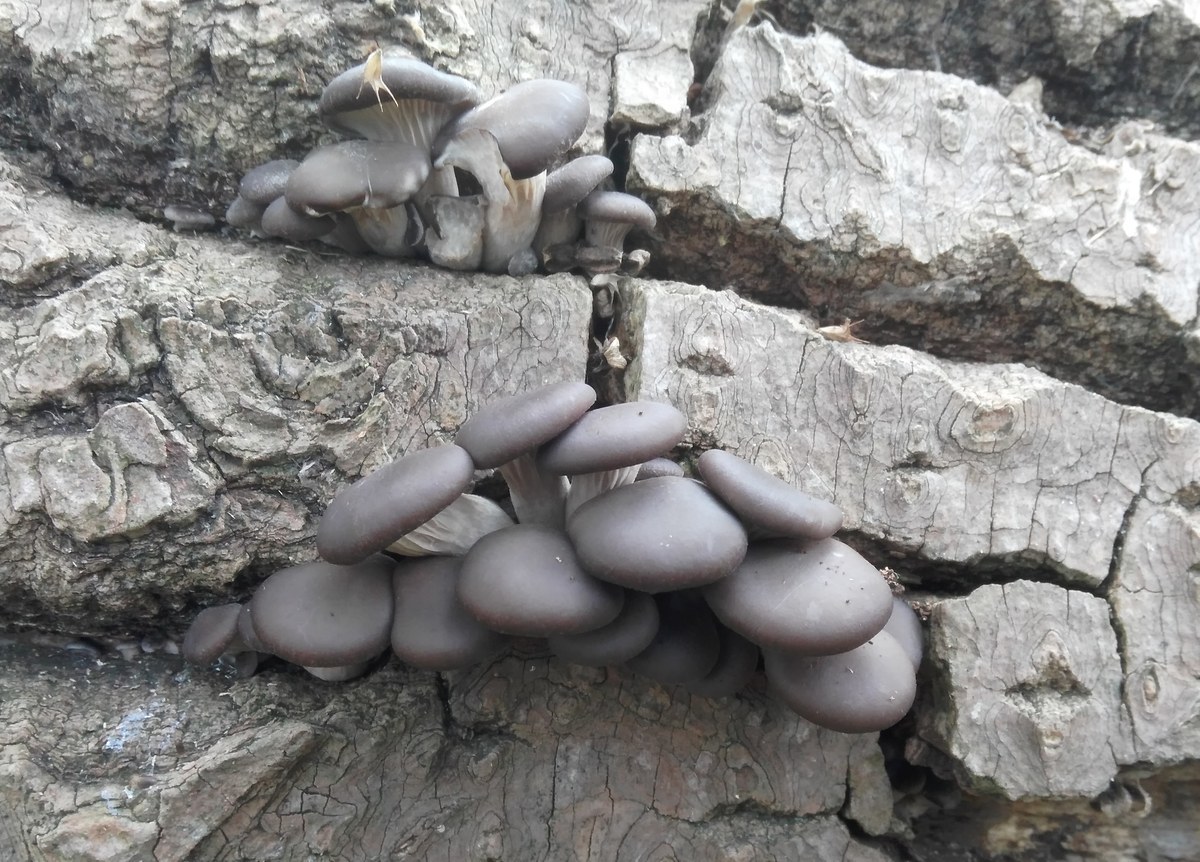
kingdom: Fungi
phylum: Basidiomycota
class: Agaricomycetes
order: Agaricales
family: Pleurotaceae
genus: Pleurotus
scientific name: Pleurotus ostreatus
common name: Oyster mushroom
